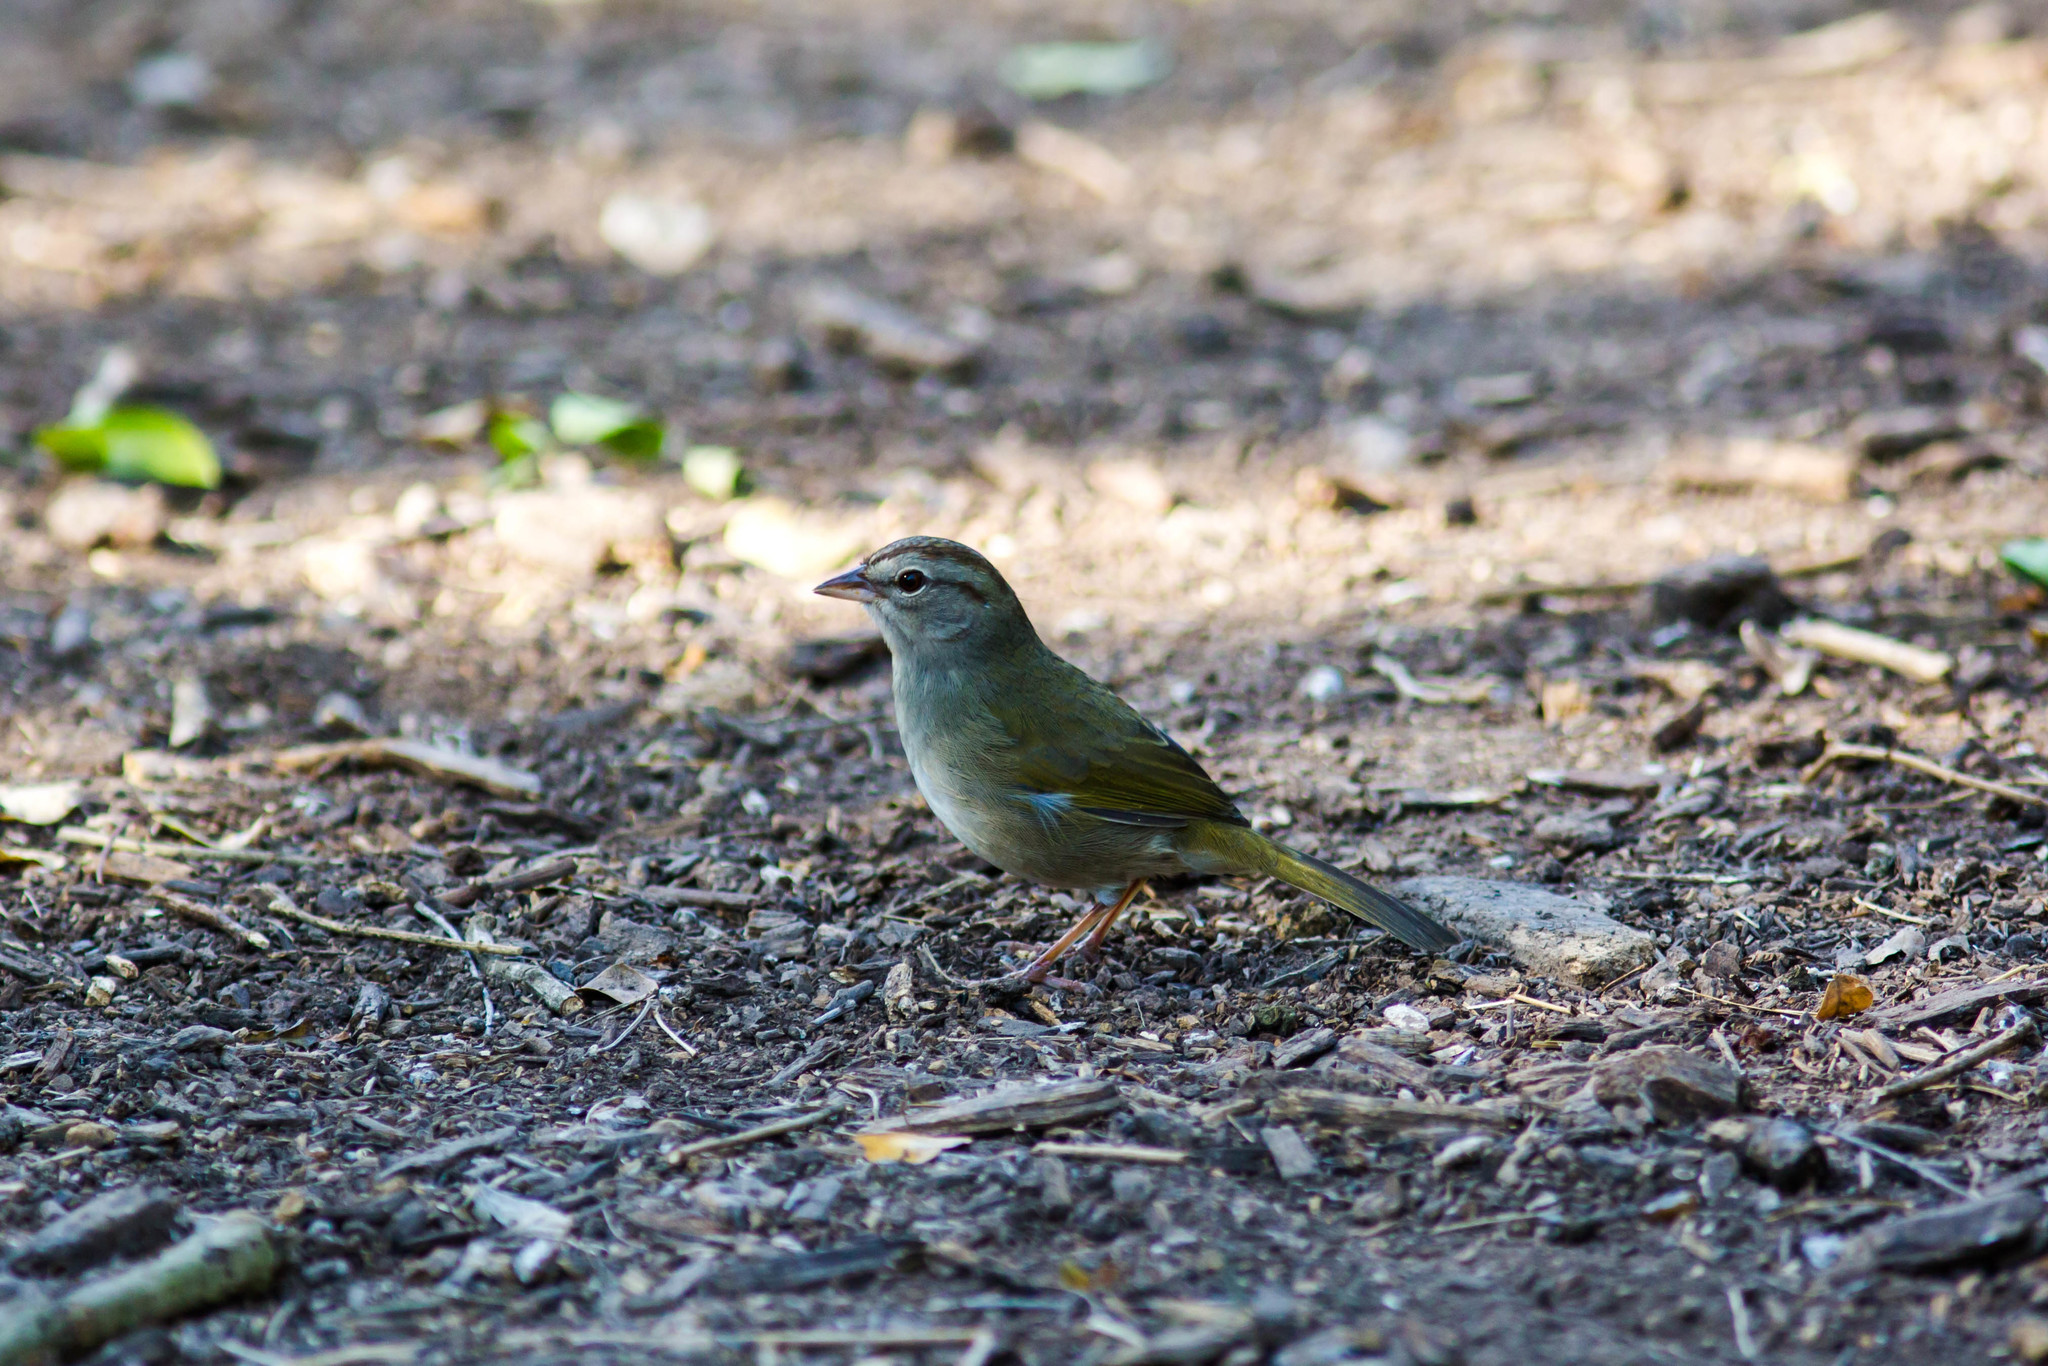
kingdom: Animalia
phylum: Chordata
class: Aves
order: Passeriformes
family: Passerellidae
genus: Arremonops
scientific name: Arremonops rufivirgatus
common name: Olive sparrow
